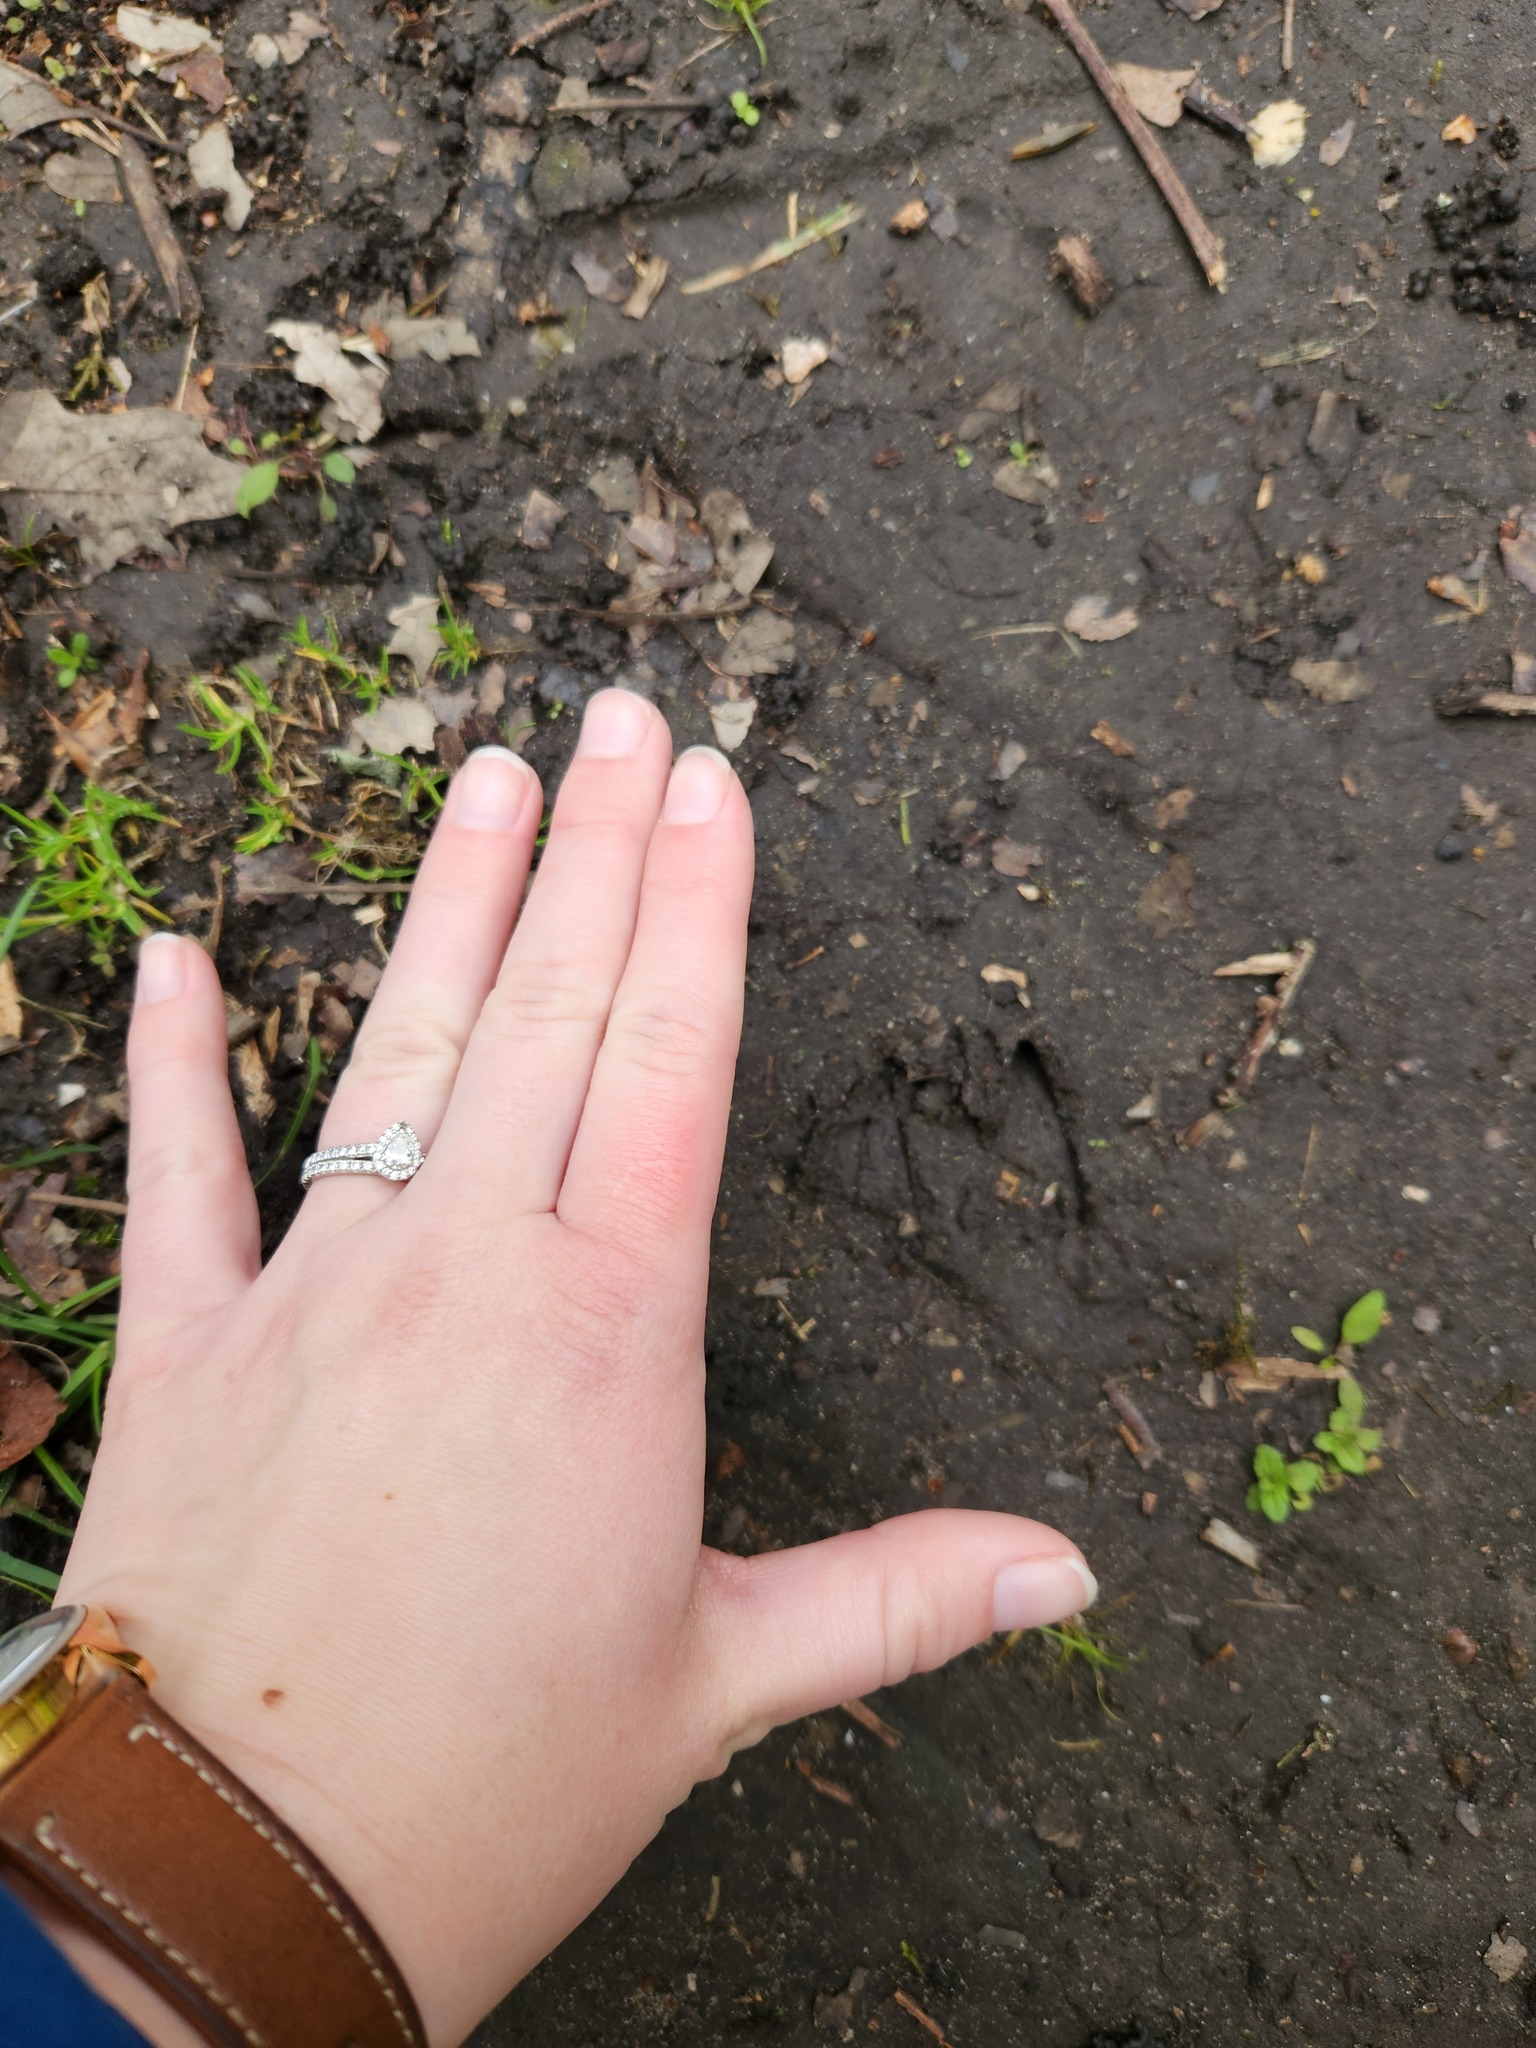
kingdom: Animalia
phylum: Chordata
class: Mammalia
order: Artiodactyla
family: Cervidae
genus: Odocoileus
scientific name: Odocoileus virginianus
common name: White-tailed deer
